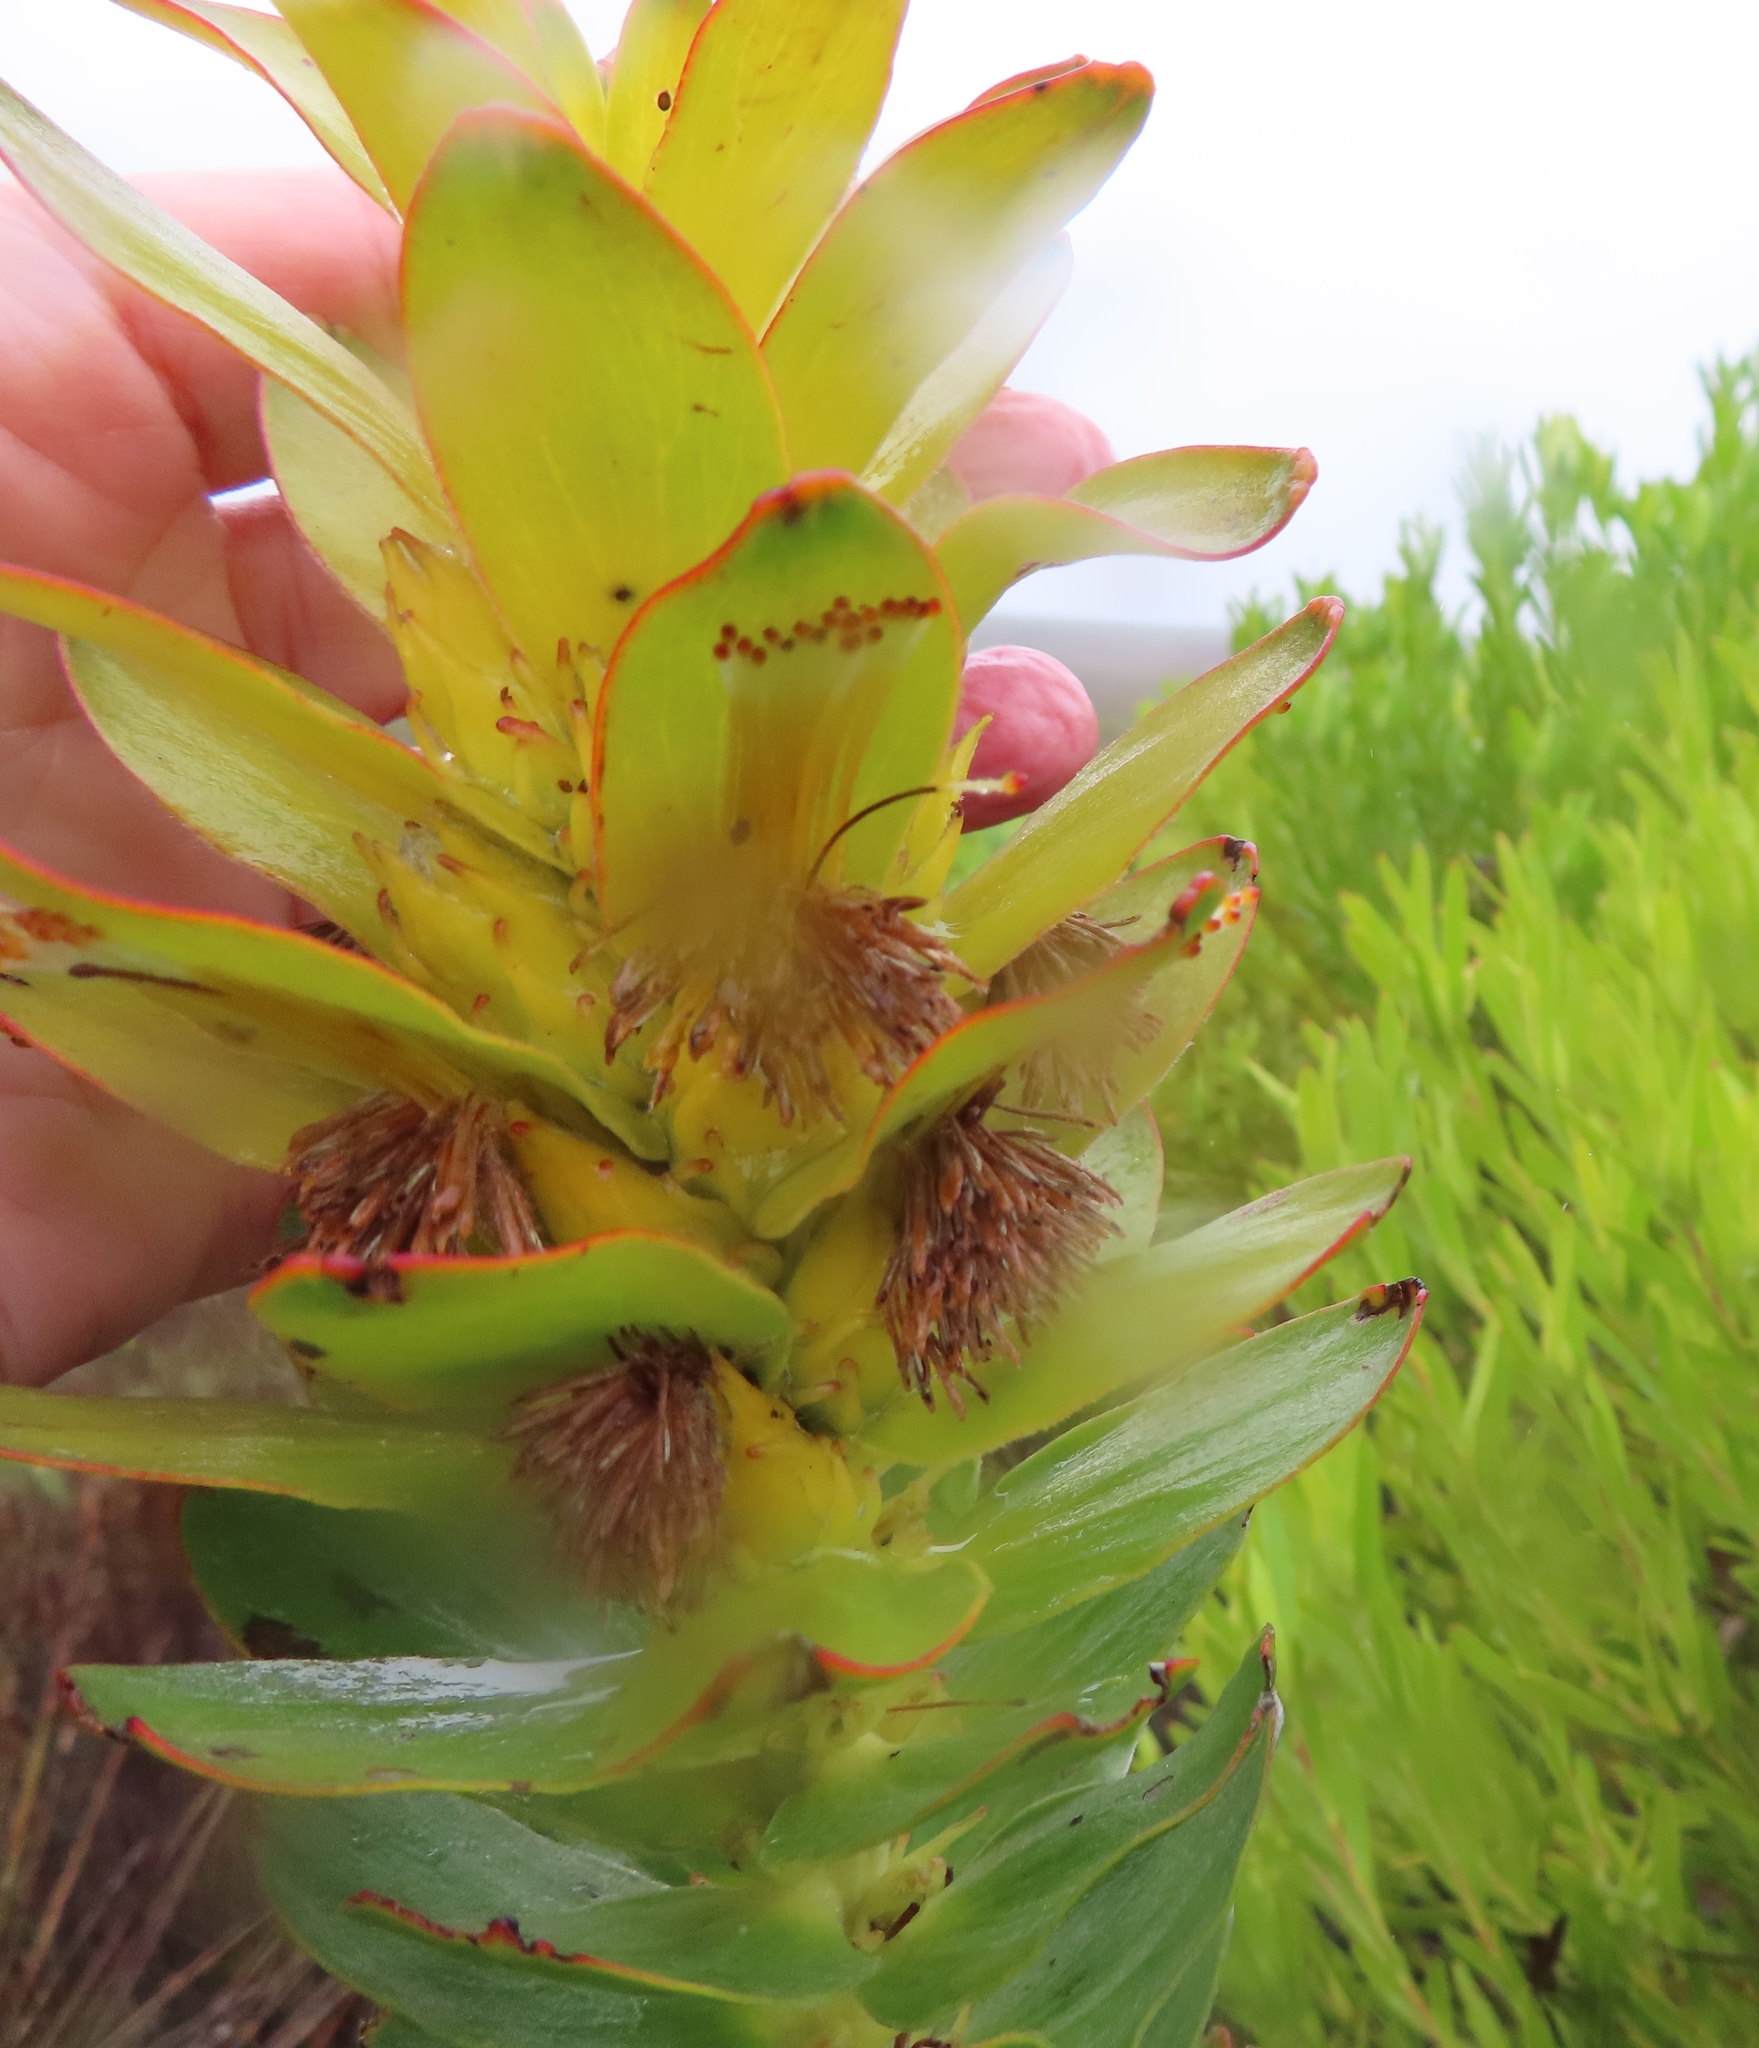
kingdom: Plantae
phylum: Tracheophyta
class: Magnoliopsida
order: Proteales
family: Proteaceae
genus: Mimetes
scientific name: Mimetes saxatilis
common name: Limestone pagoda
